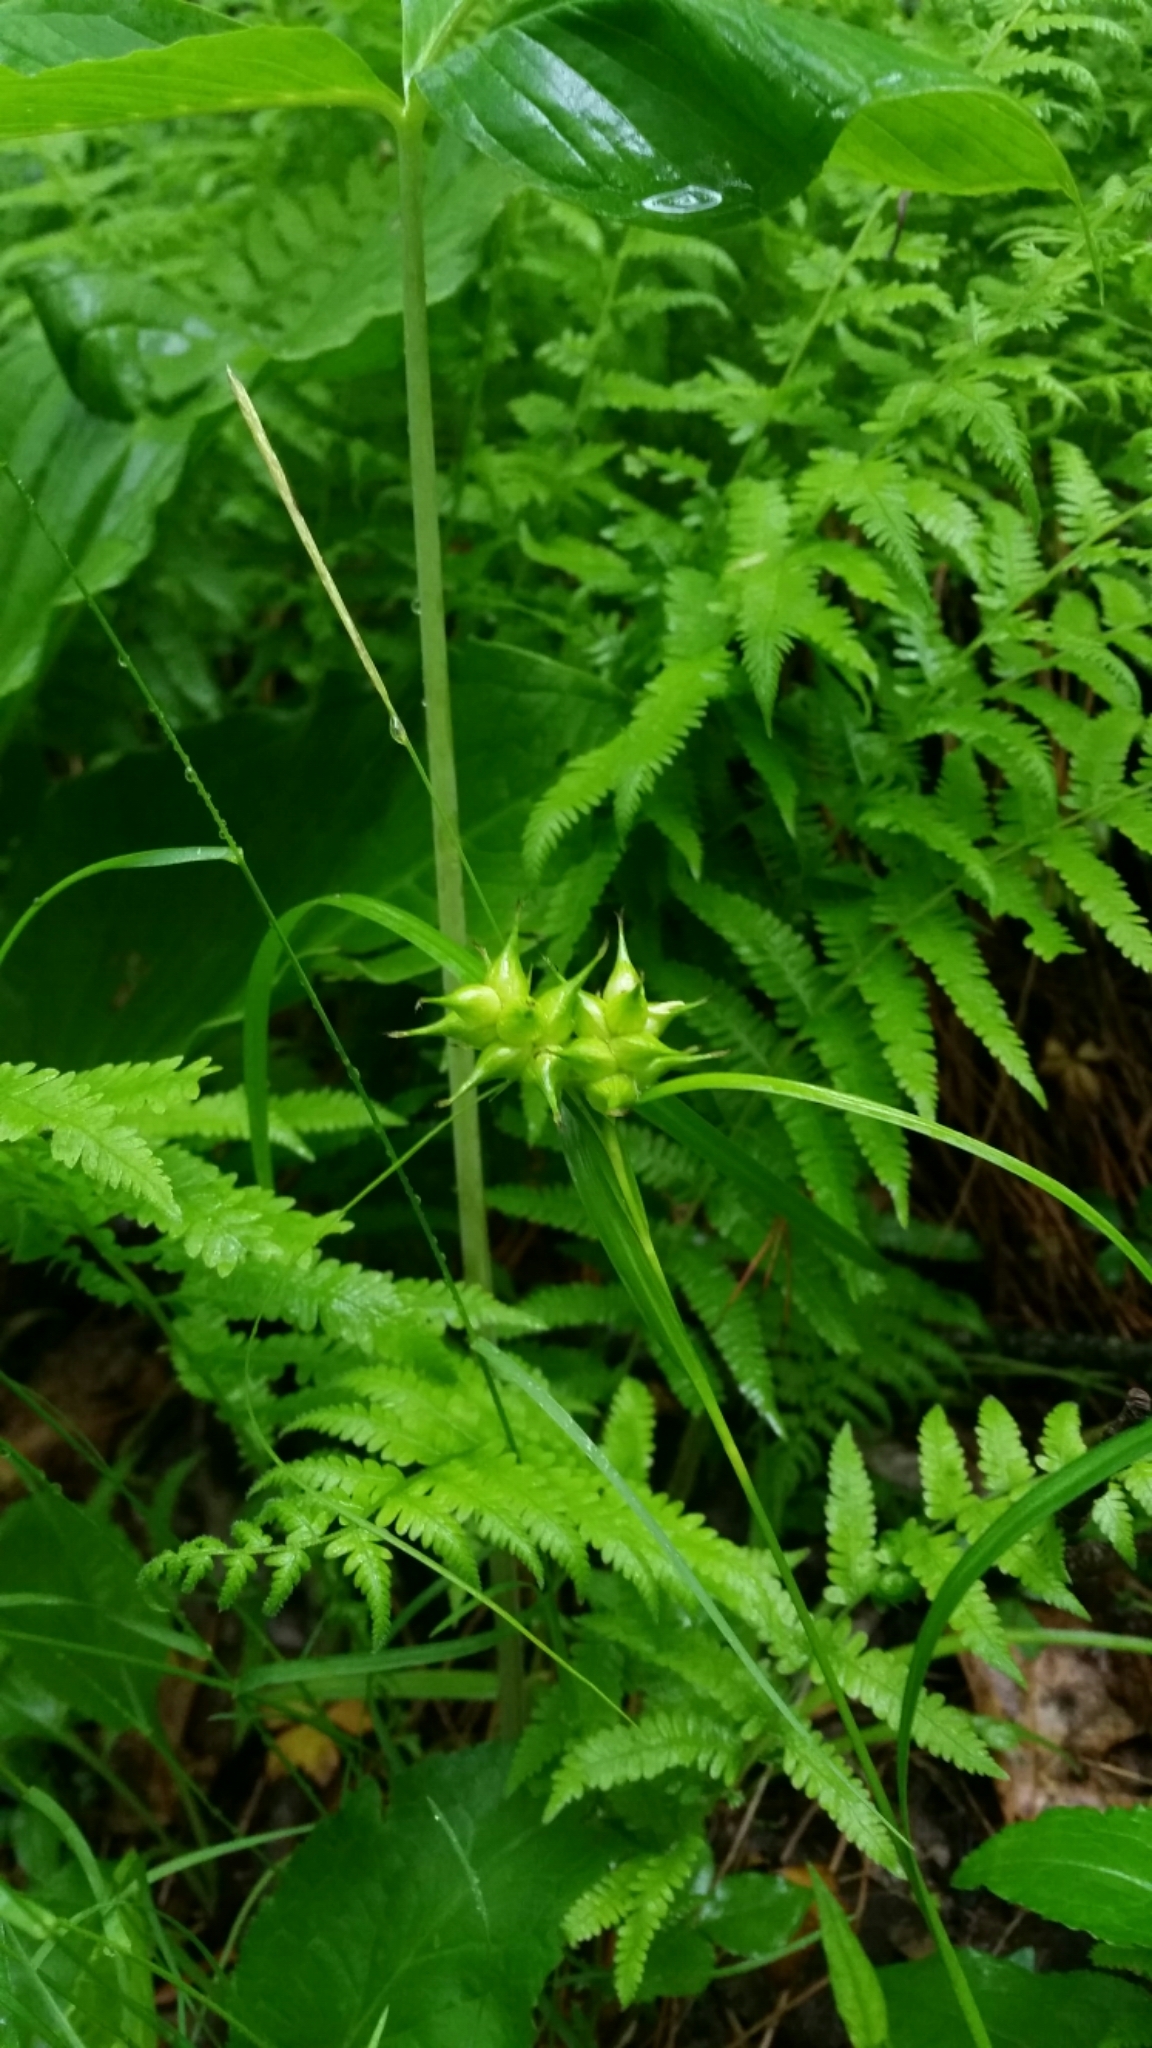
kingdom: Plantae
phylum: Tracheophyta
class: Liliopsida
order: Poales
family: Cyperaceae
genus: Carex
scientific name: Carex intumescens
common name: Greater bladder sedge
